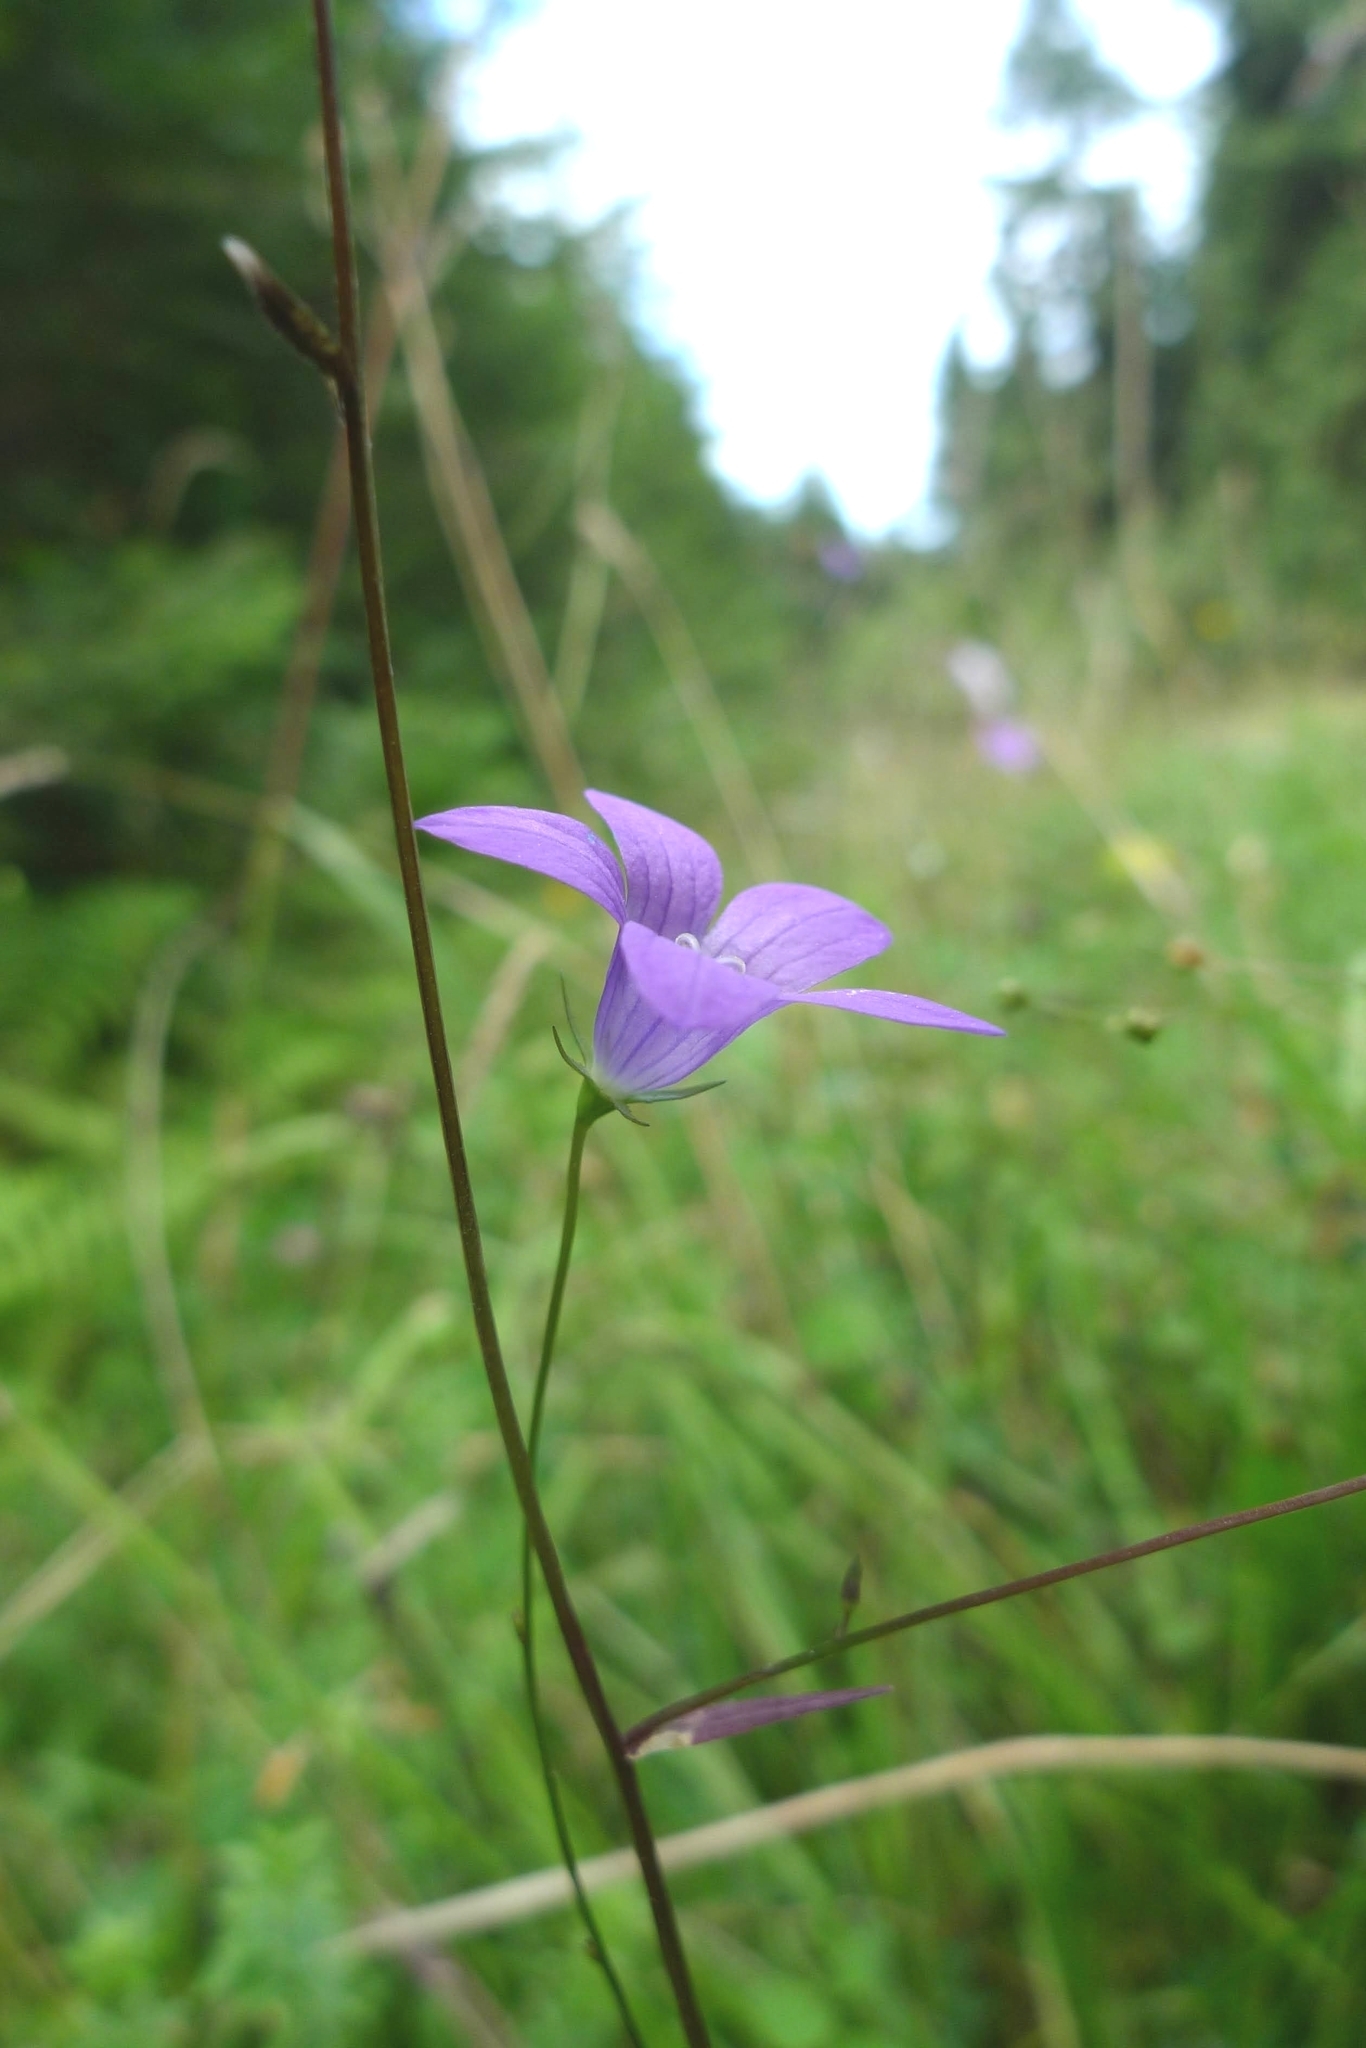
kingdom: Plantae
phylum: Tracheophyta
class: Magnoliopsida
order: Asterales
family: Campanulaceae
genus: Campanula
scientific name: Campanula patula
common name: Spreading bellflower
